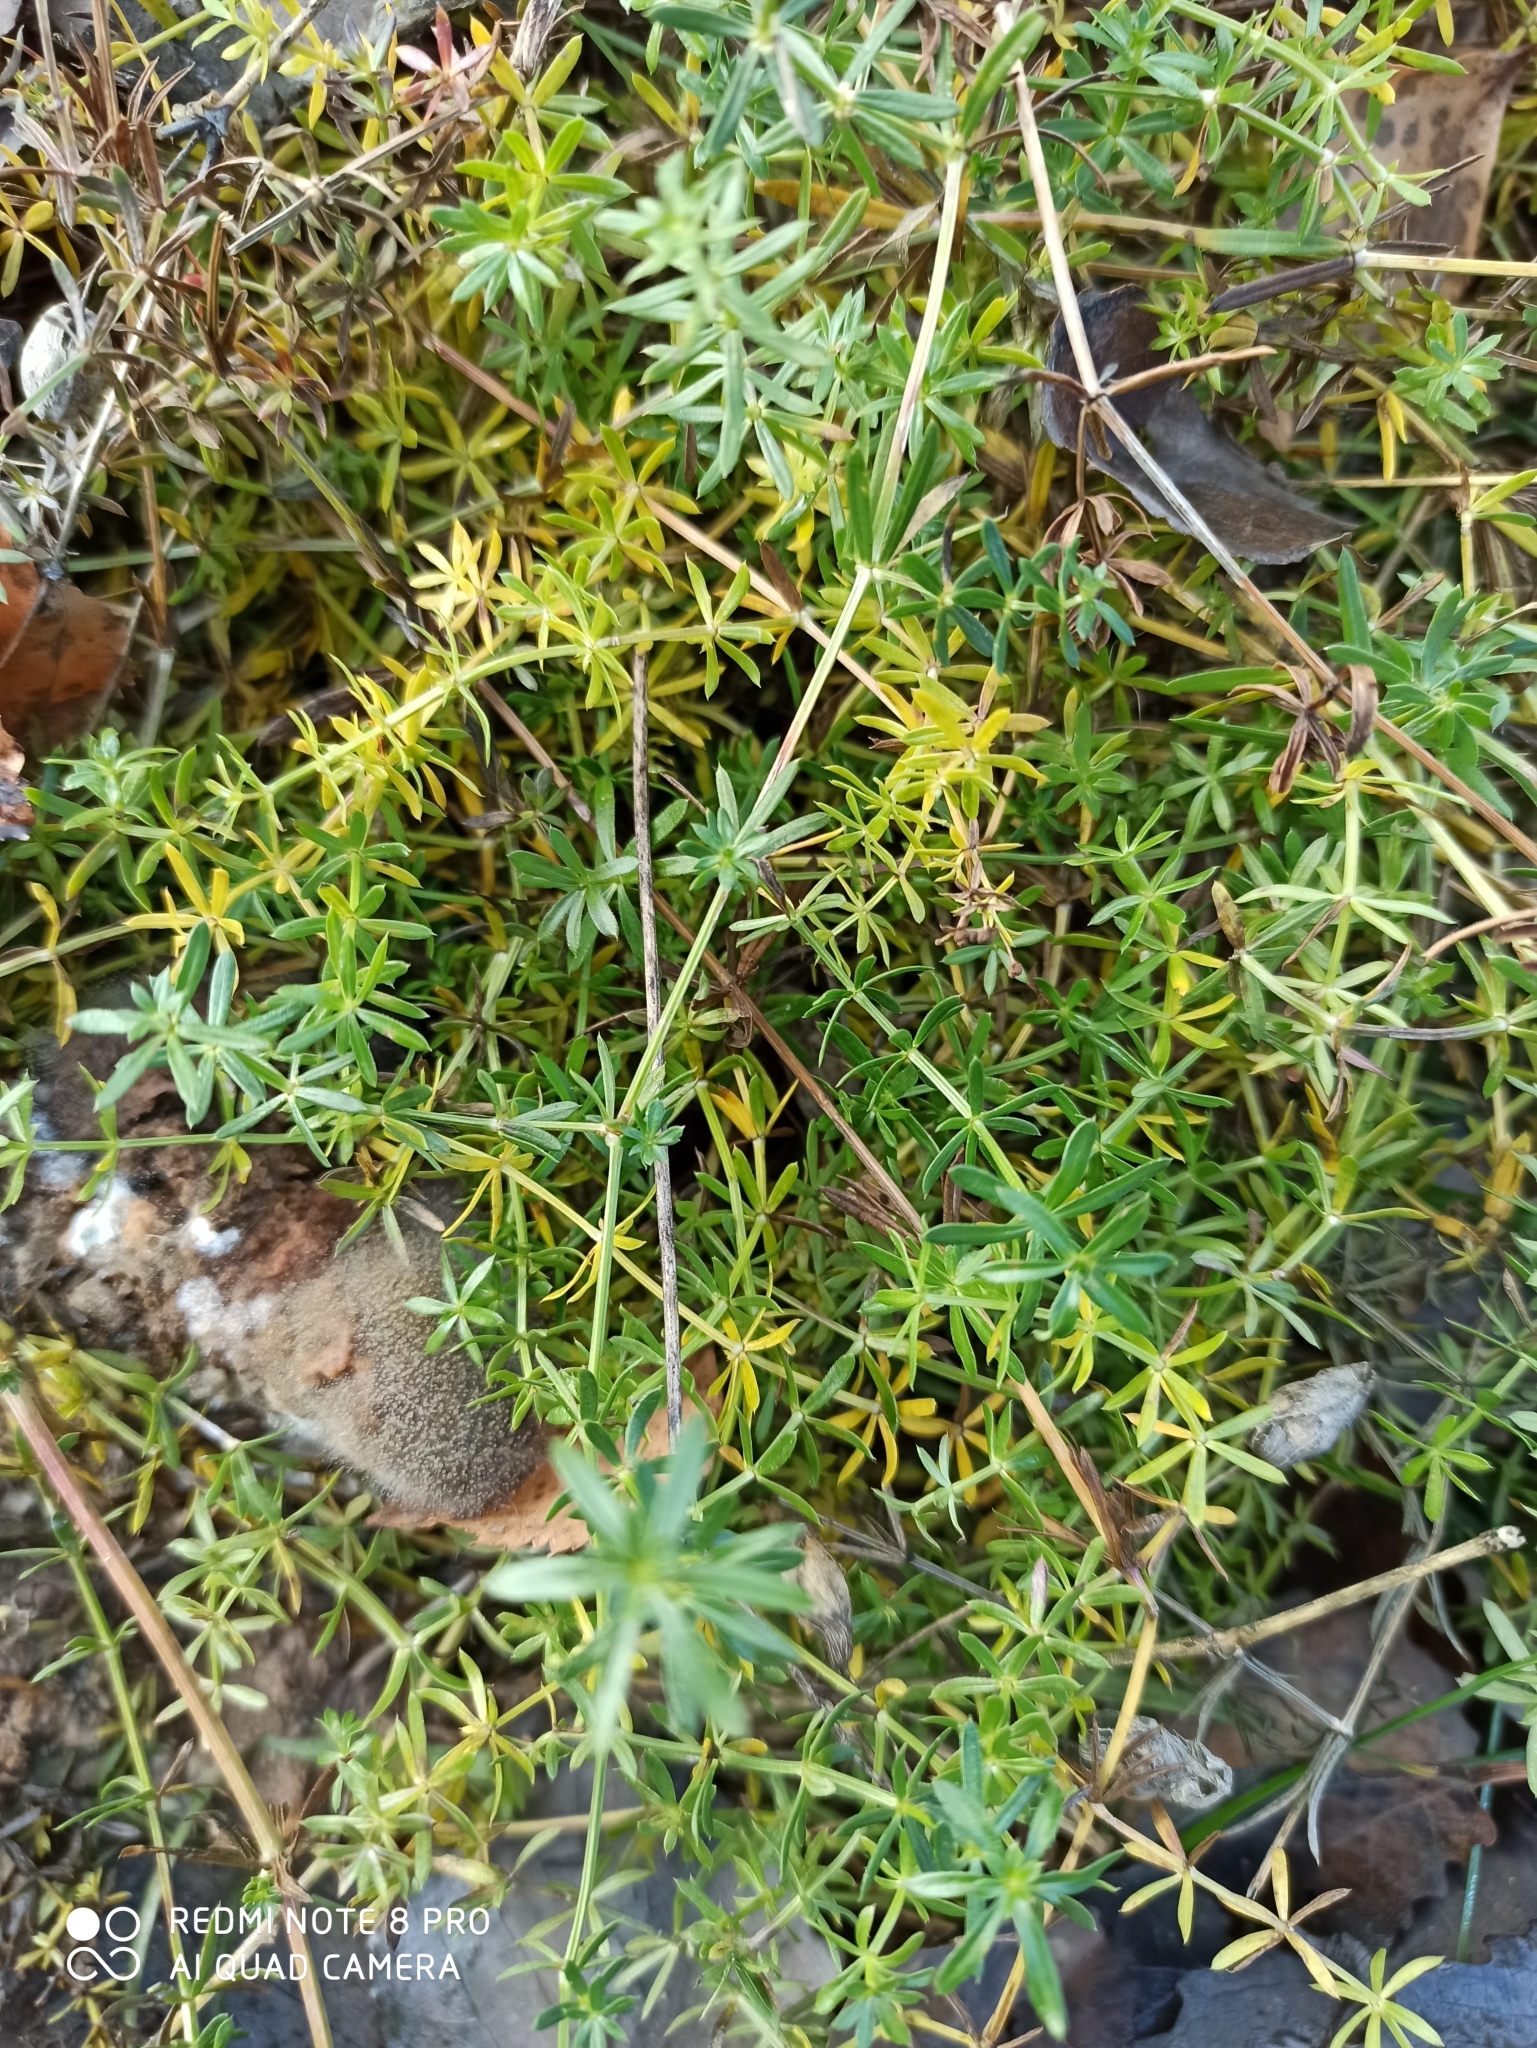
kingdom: Plantae
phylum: Tracheophyta
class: Magnoliopsida
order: Gentianales
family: Rubiaceae
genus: Galium
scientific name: Galium mollugo
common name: Hedge bedstraw
